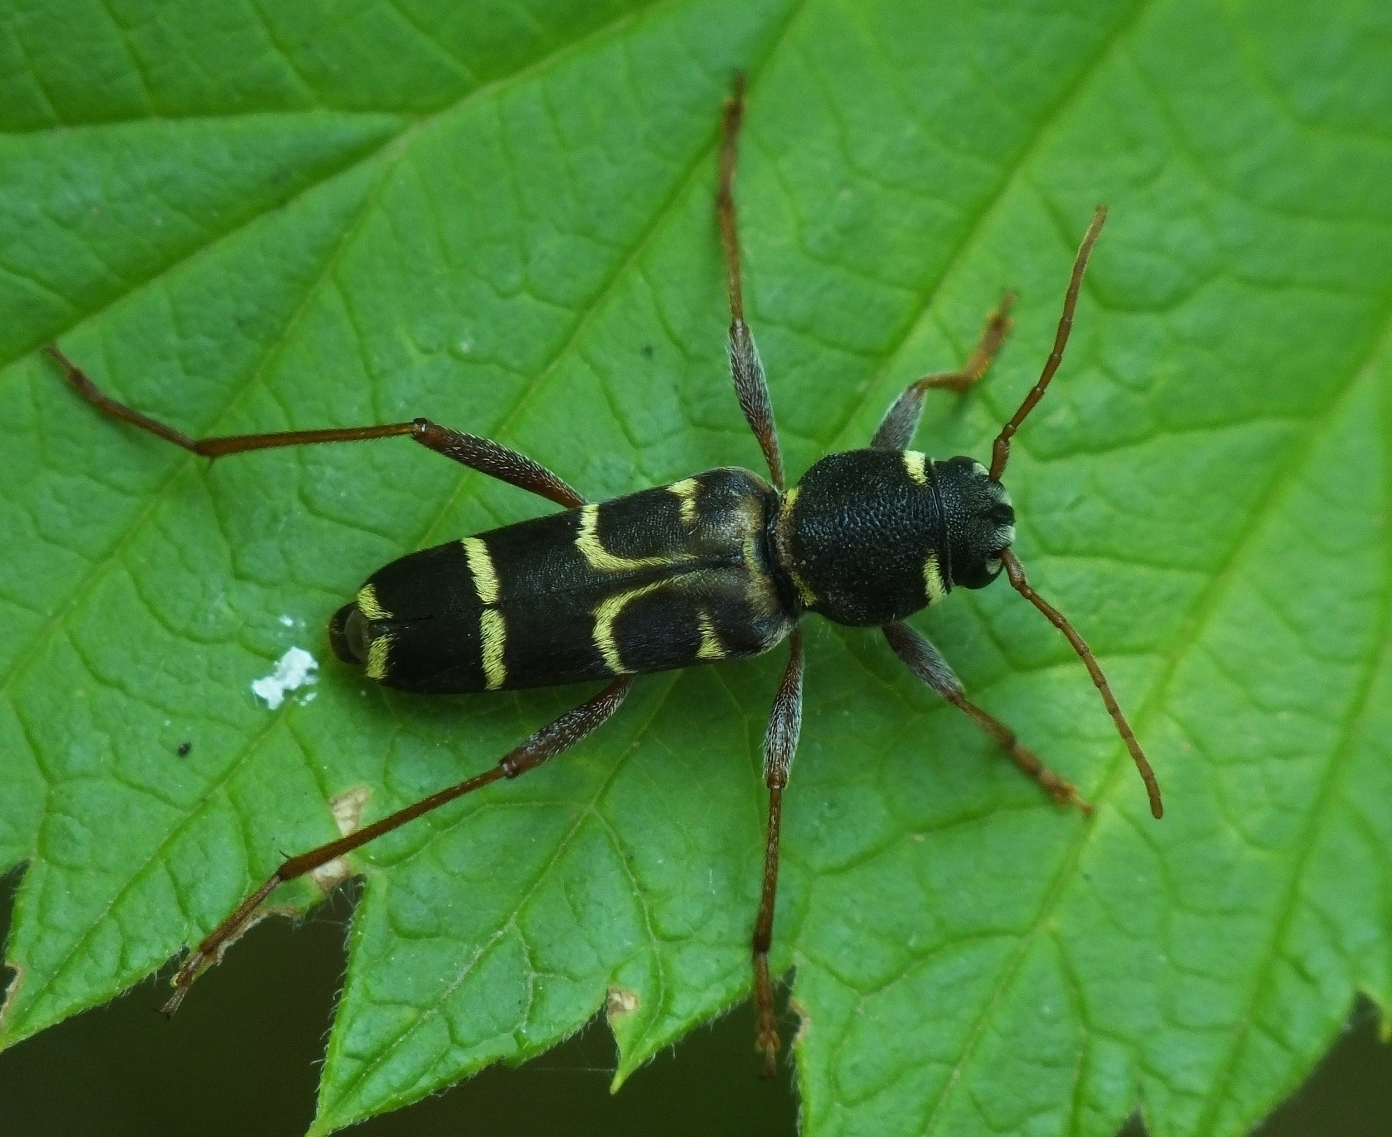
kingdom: Animalia
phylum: Arthropoda
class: Insecta
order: Coleoptera
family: Cerambycidae
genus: Xylotrechus
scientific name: Xylotrechus arvicola
